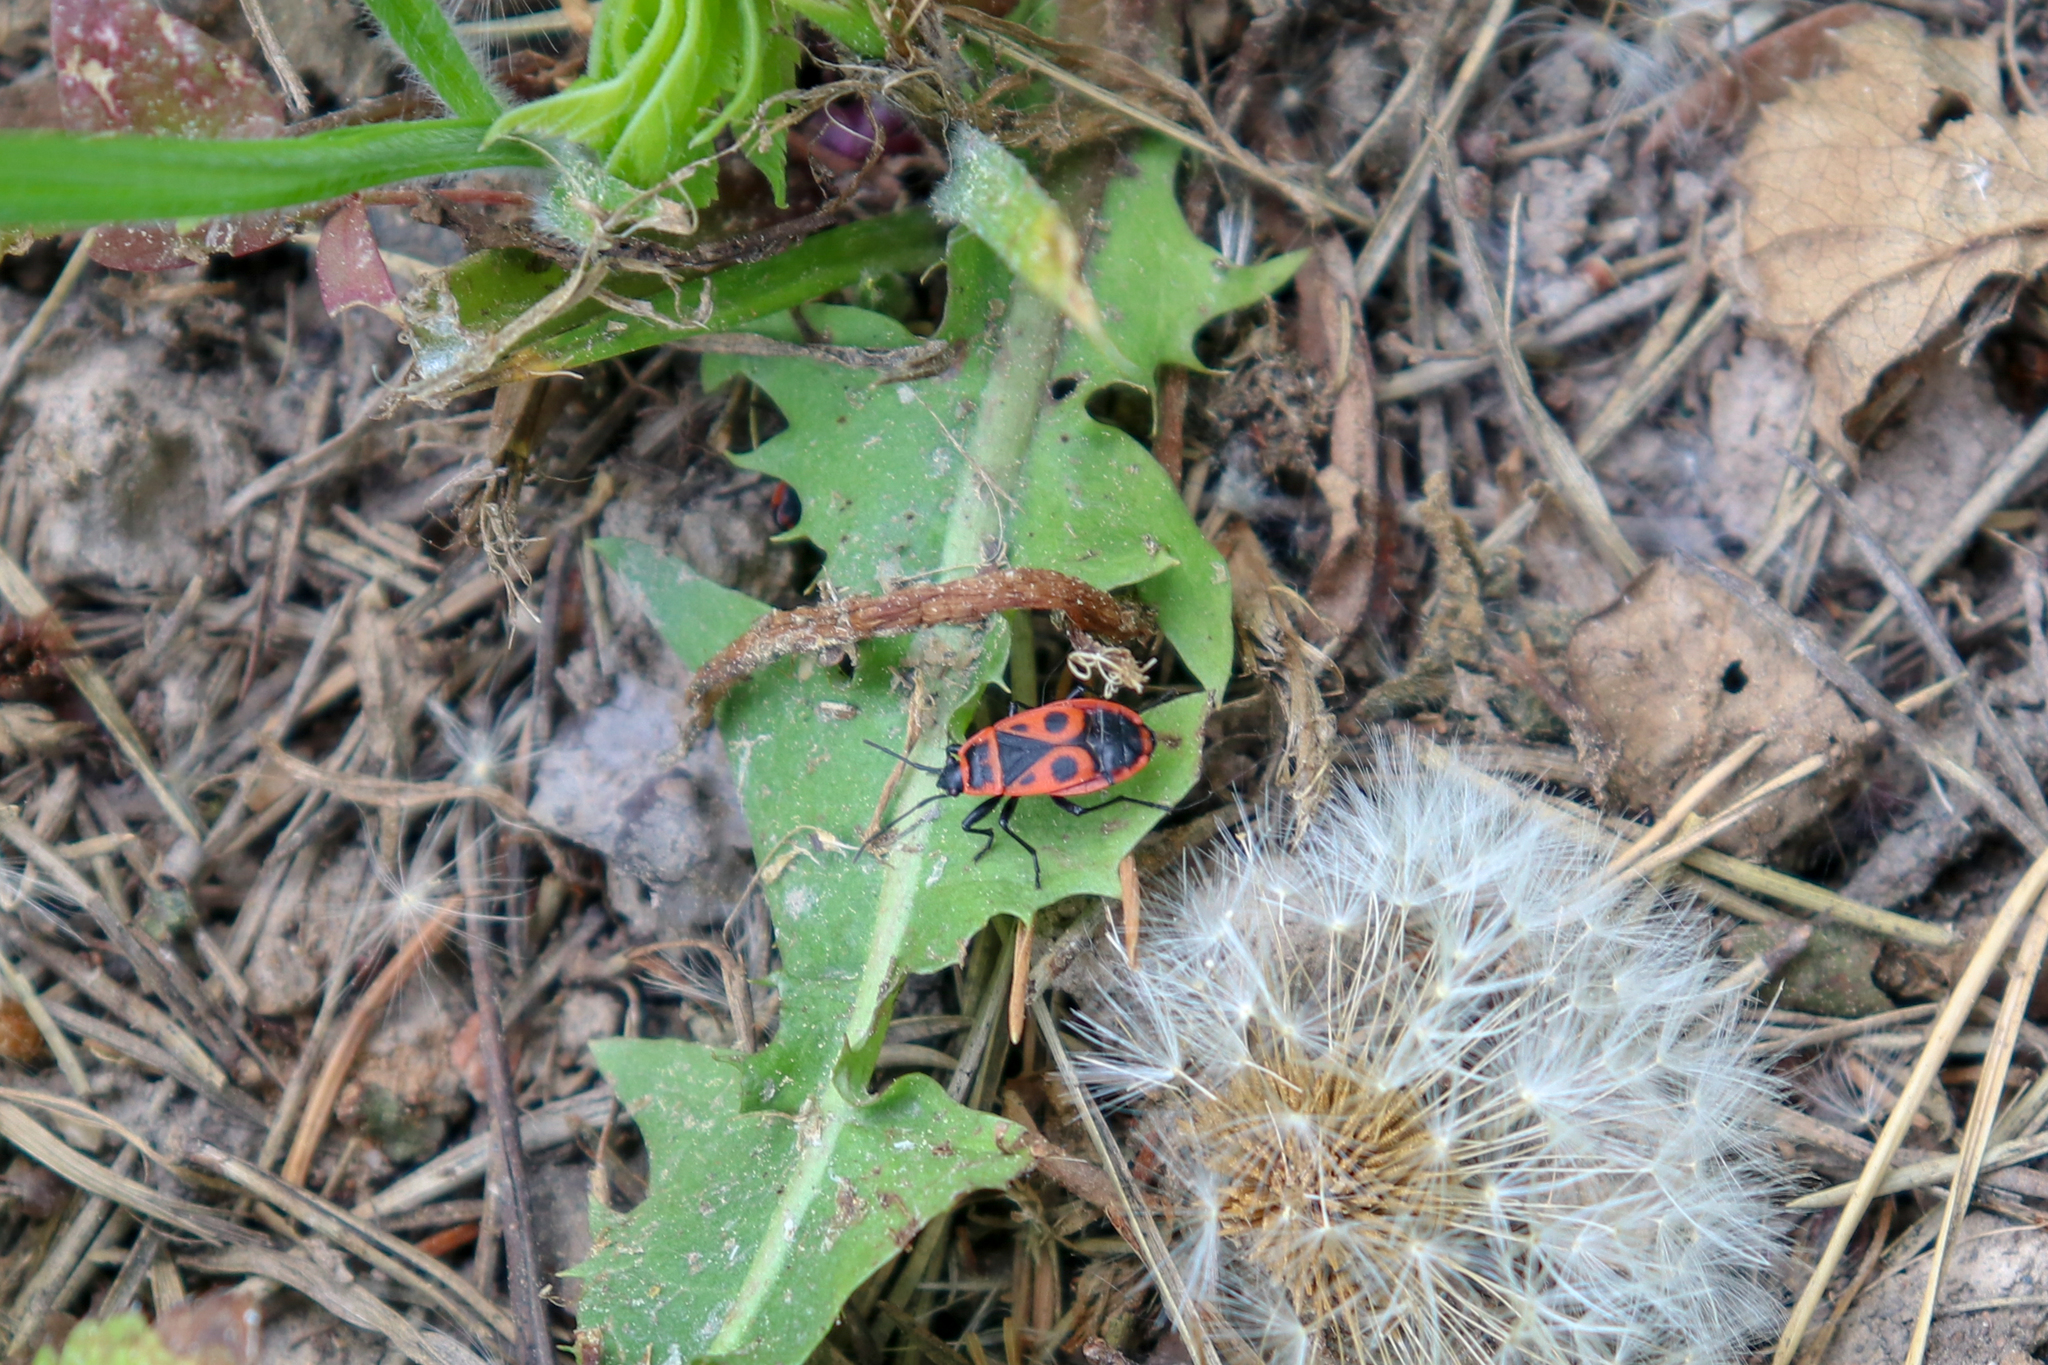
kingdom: Animalia
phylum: Arthropoda
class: Insecta
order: Hemiptera
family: Pyrrhocoridae
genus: Pyrrhocoris
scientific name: Pyrrhocoris apterus
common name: Firebug
